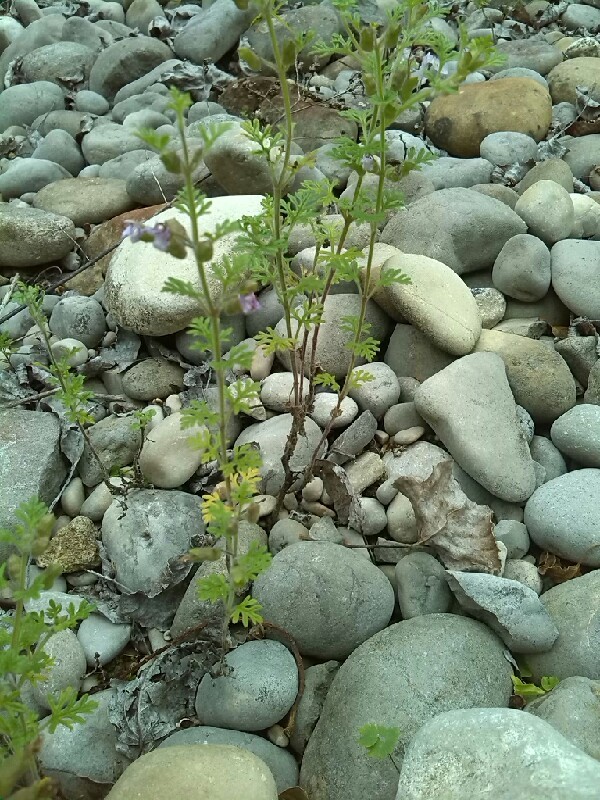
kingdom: Plantae
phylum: Tracheophyta
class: Magnoliopsida
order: Lamiales
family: Lamiaceae
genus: Teucrium
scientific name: Teucrium botrys
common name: Cut-leaved germander
